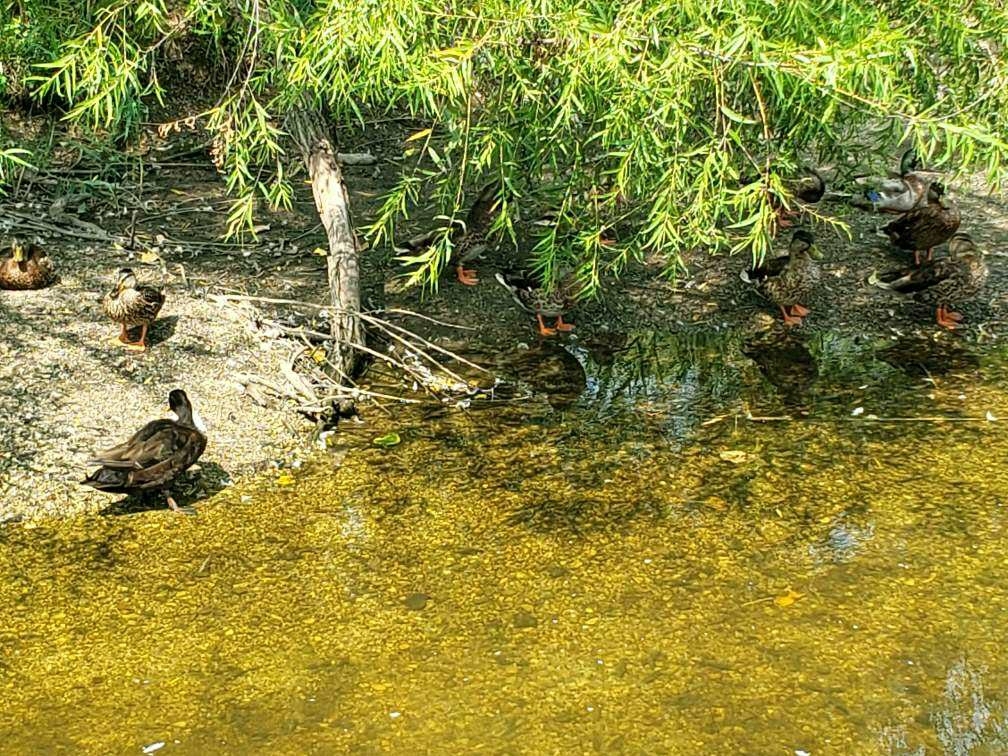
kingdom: Animalia
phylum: Chordata
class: Aves
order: Anseriformes
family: Anatidae
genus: Anas
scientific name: Anas platyrhynchos
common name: Mallard
